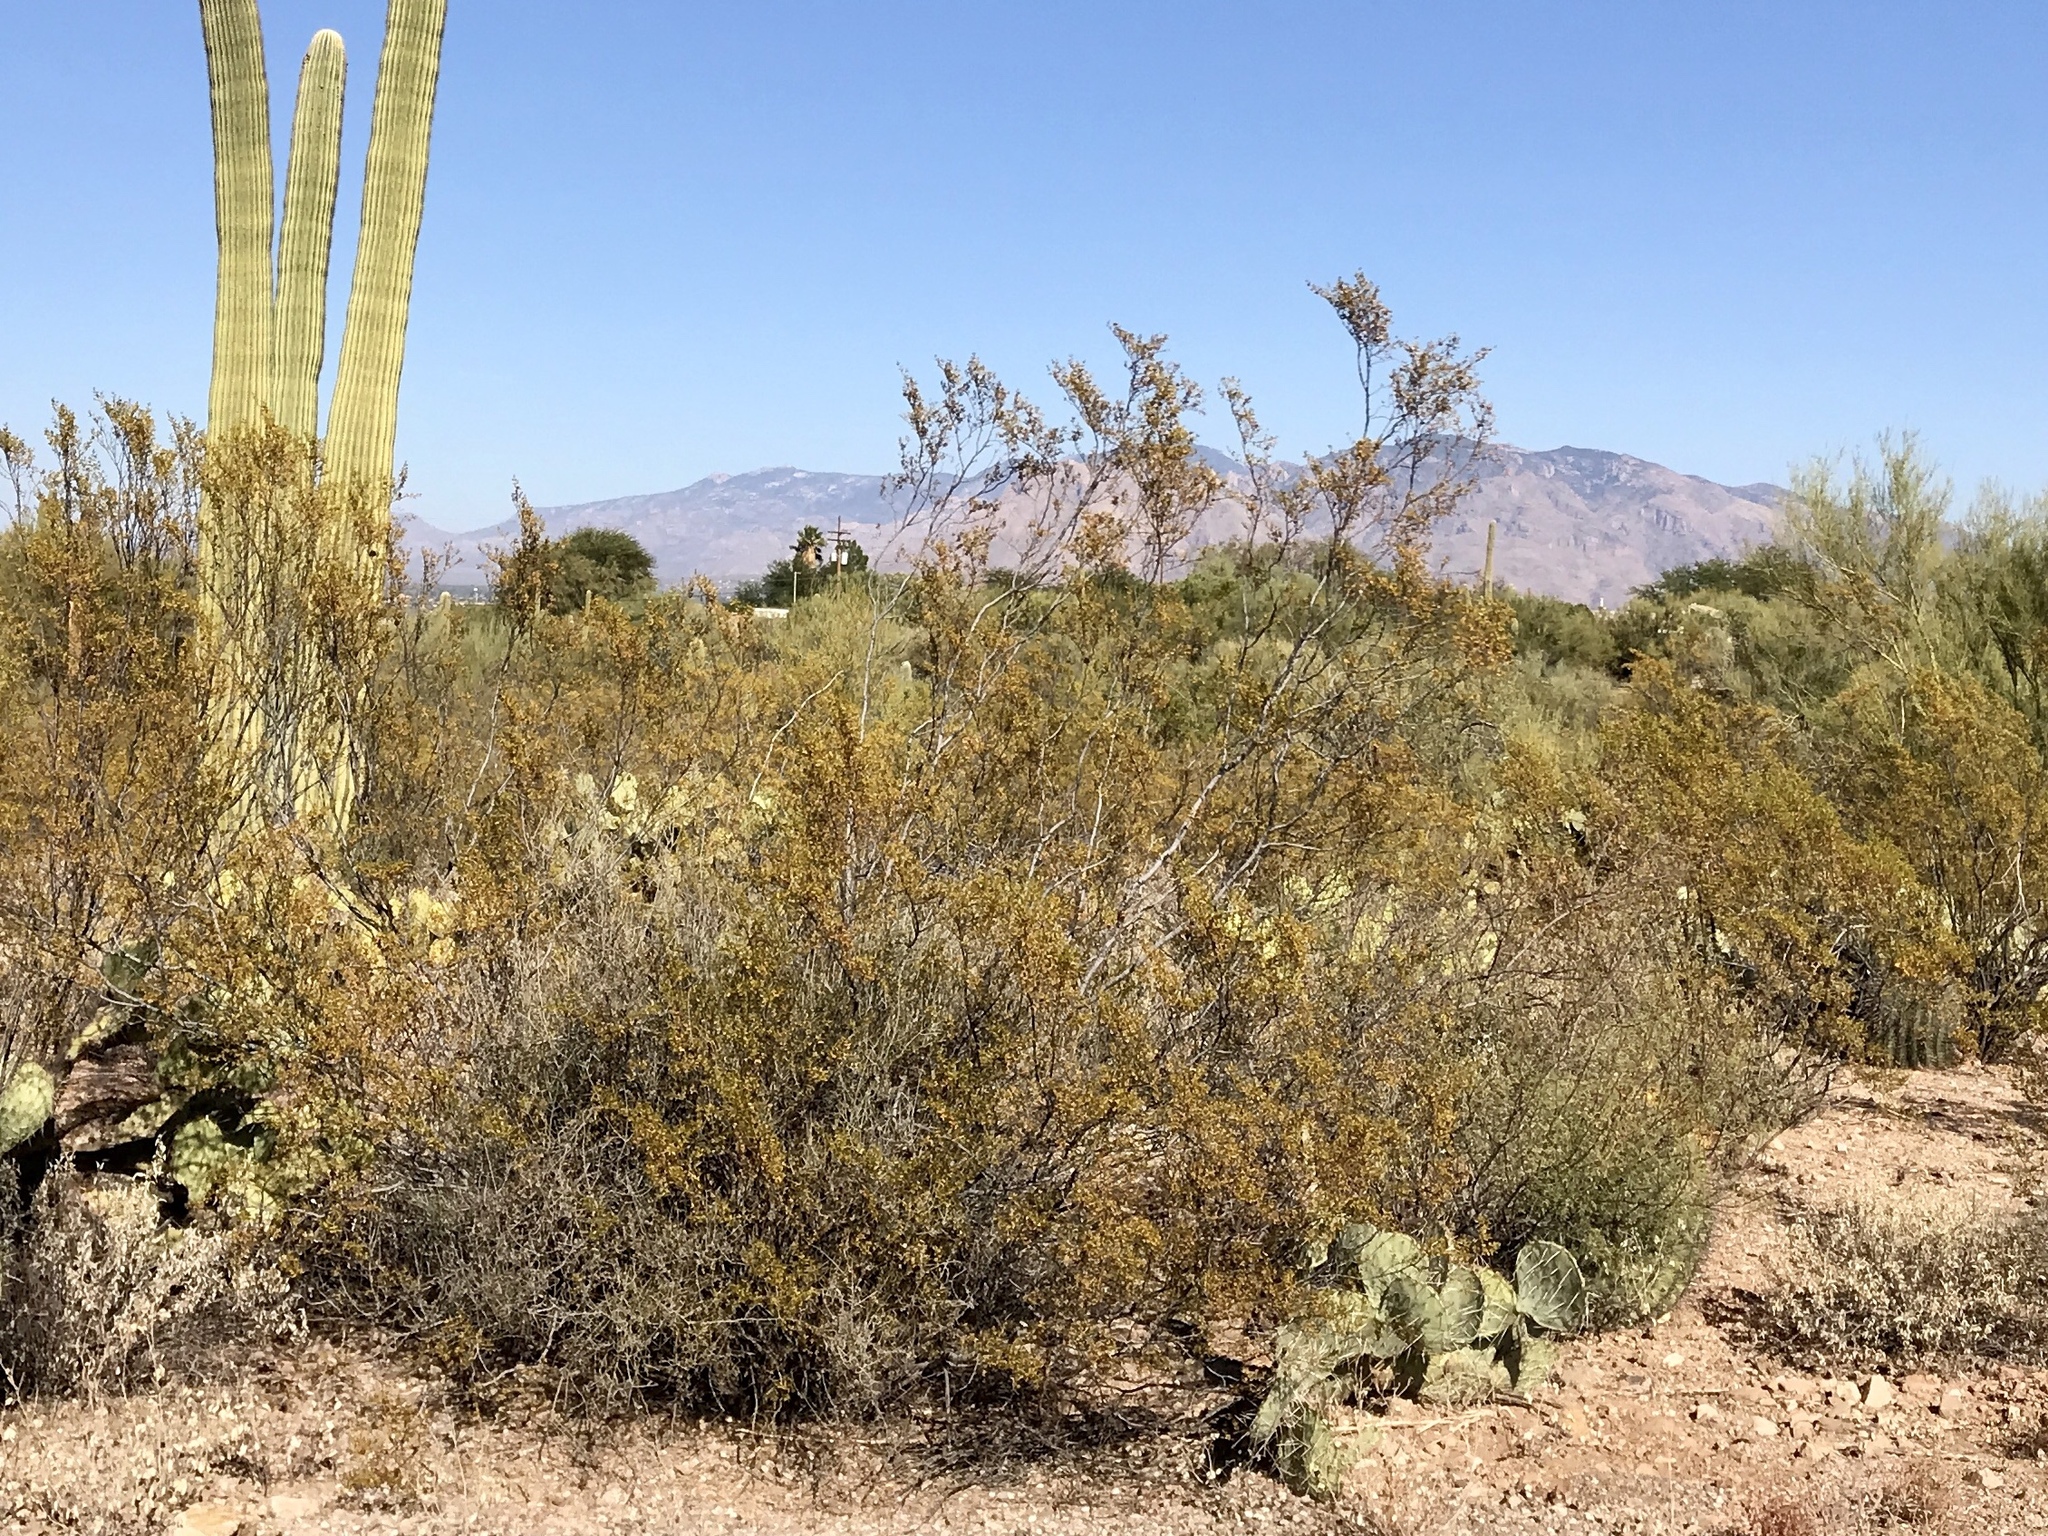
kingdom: Plantae
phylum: Tracheophyta
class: Magnoliopsida
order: Zygophyllales
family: Zygophyllaceae
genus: Larrea
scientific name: Larrea tridentata
